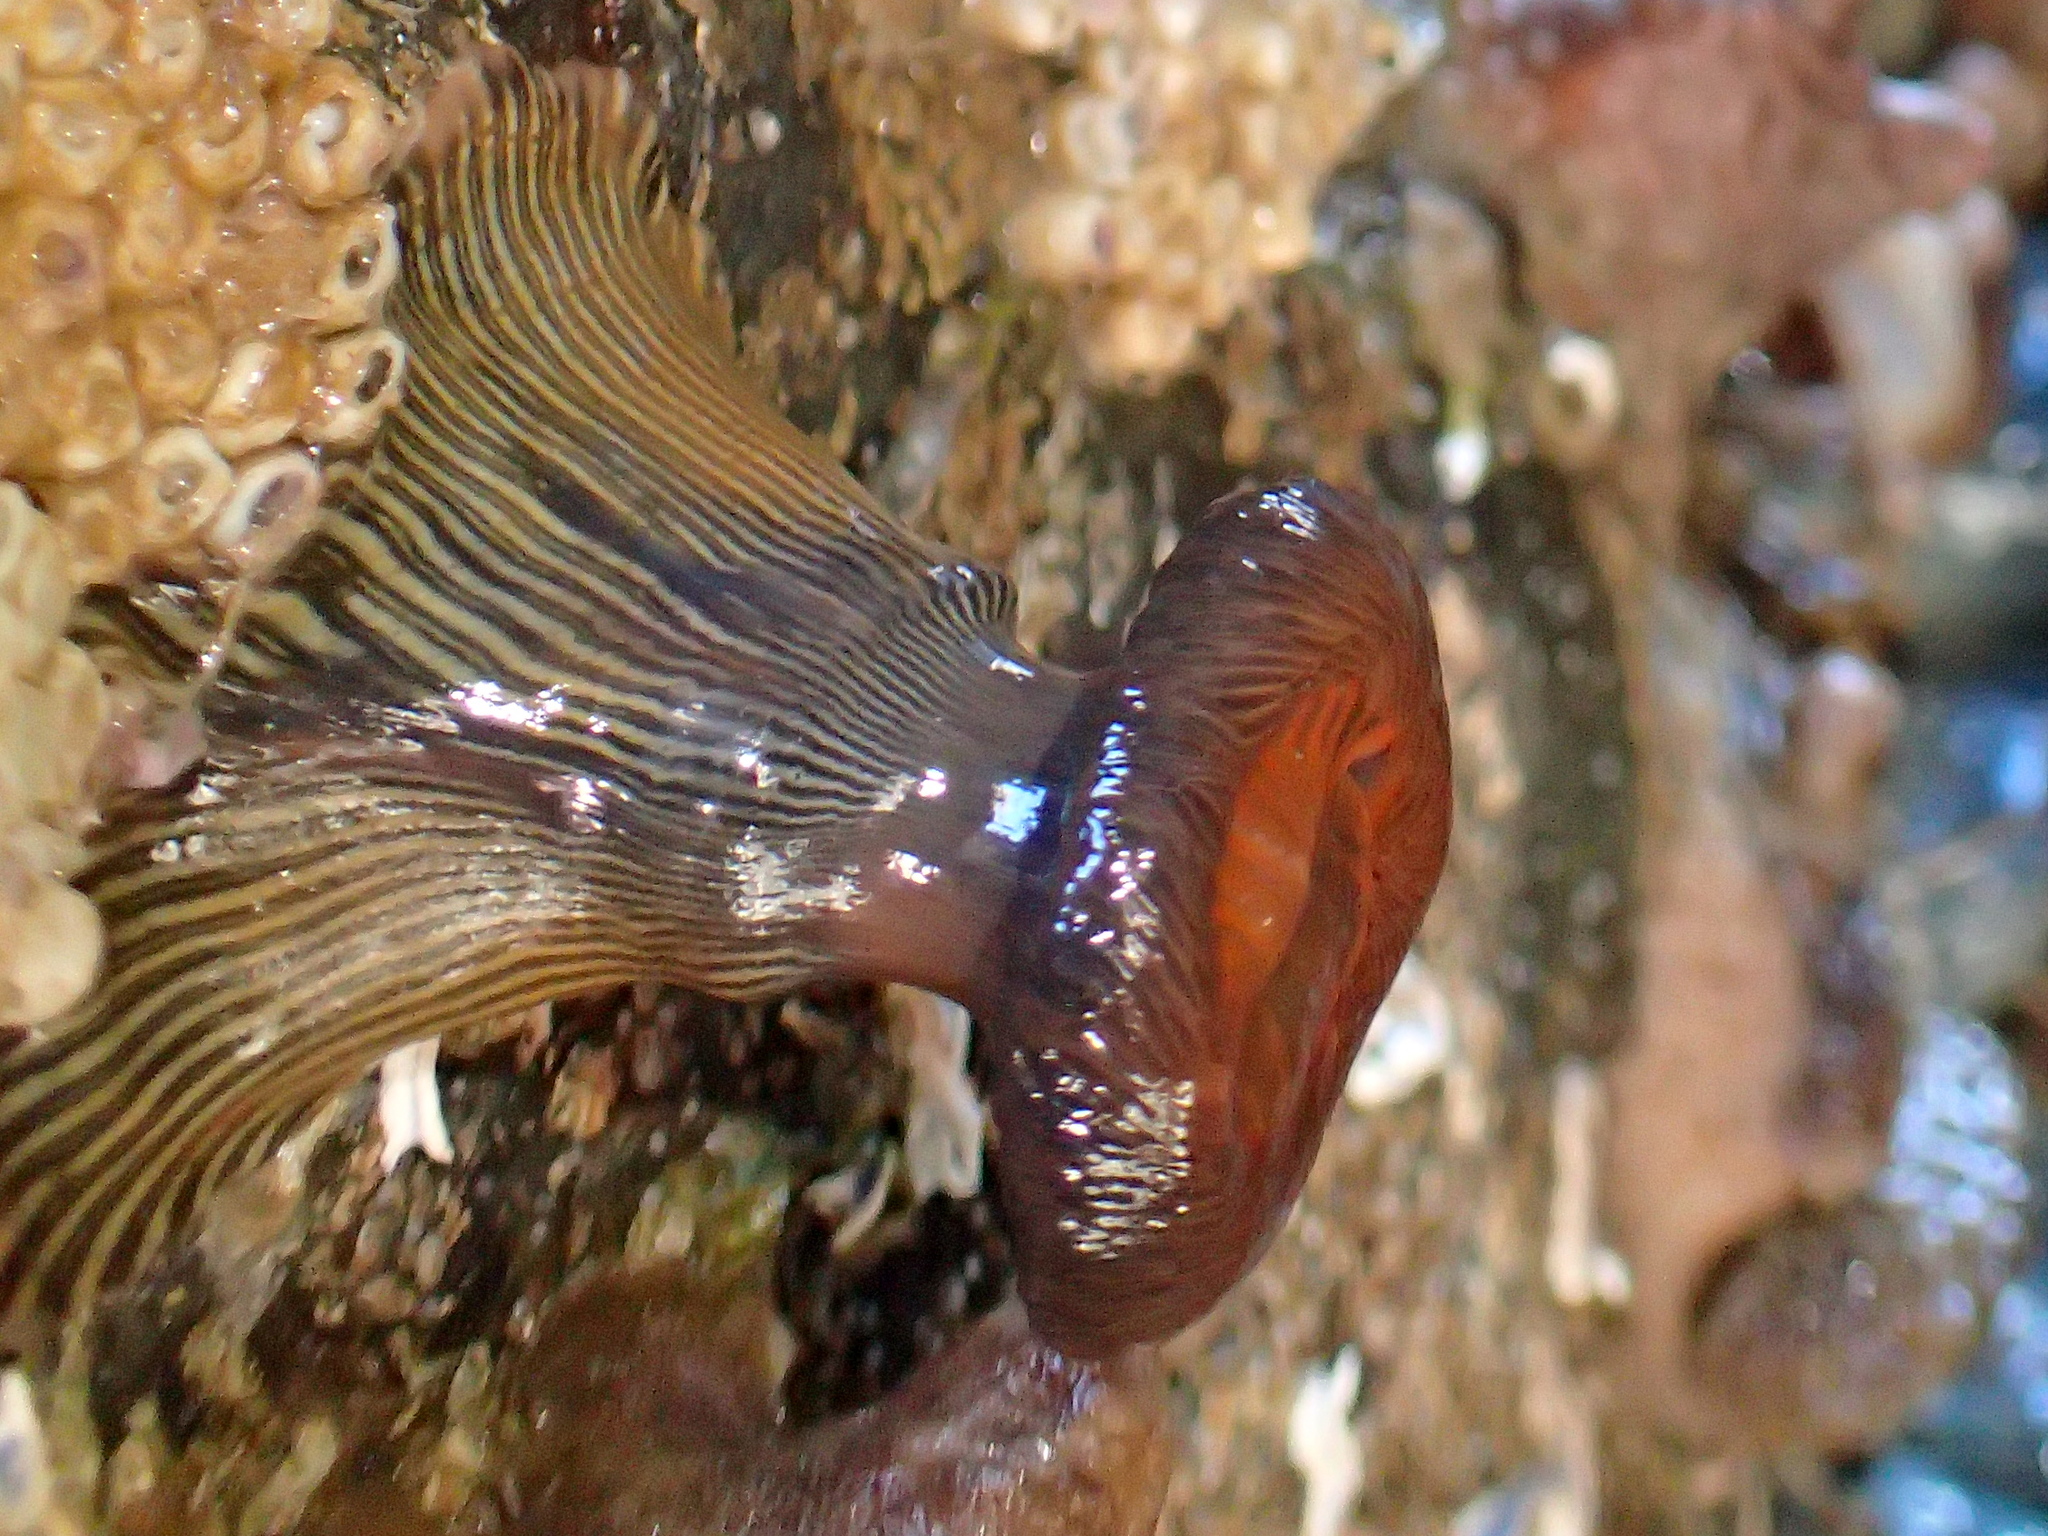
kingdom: Animalia
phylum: Cnidaria
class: Anthozoa
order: Actiniaria
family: Diadumenidae
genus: Diadumene
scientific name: Diadumene neozelanica
